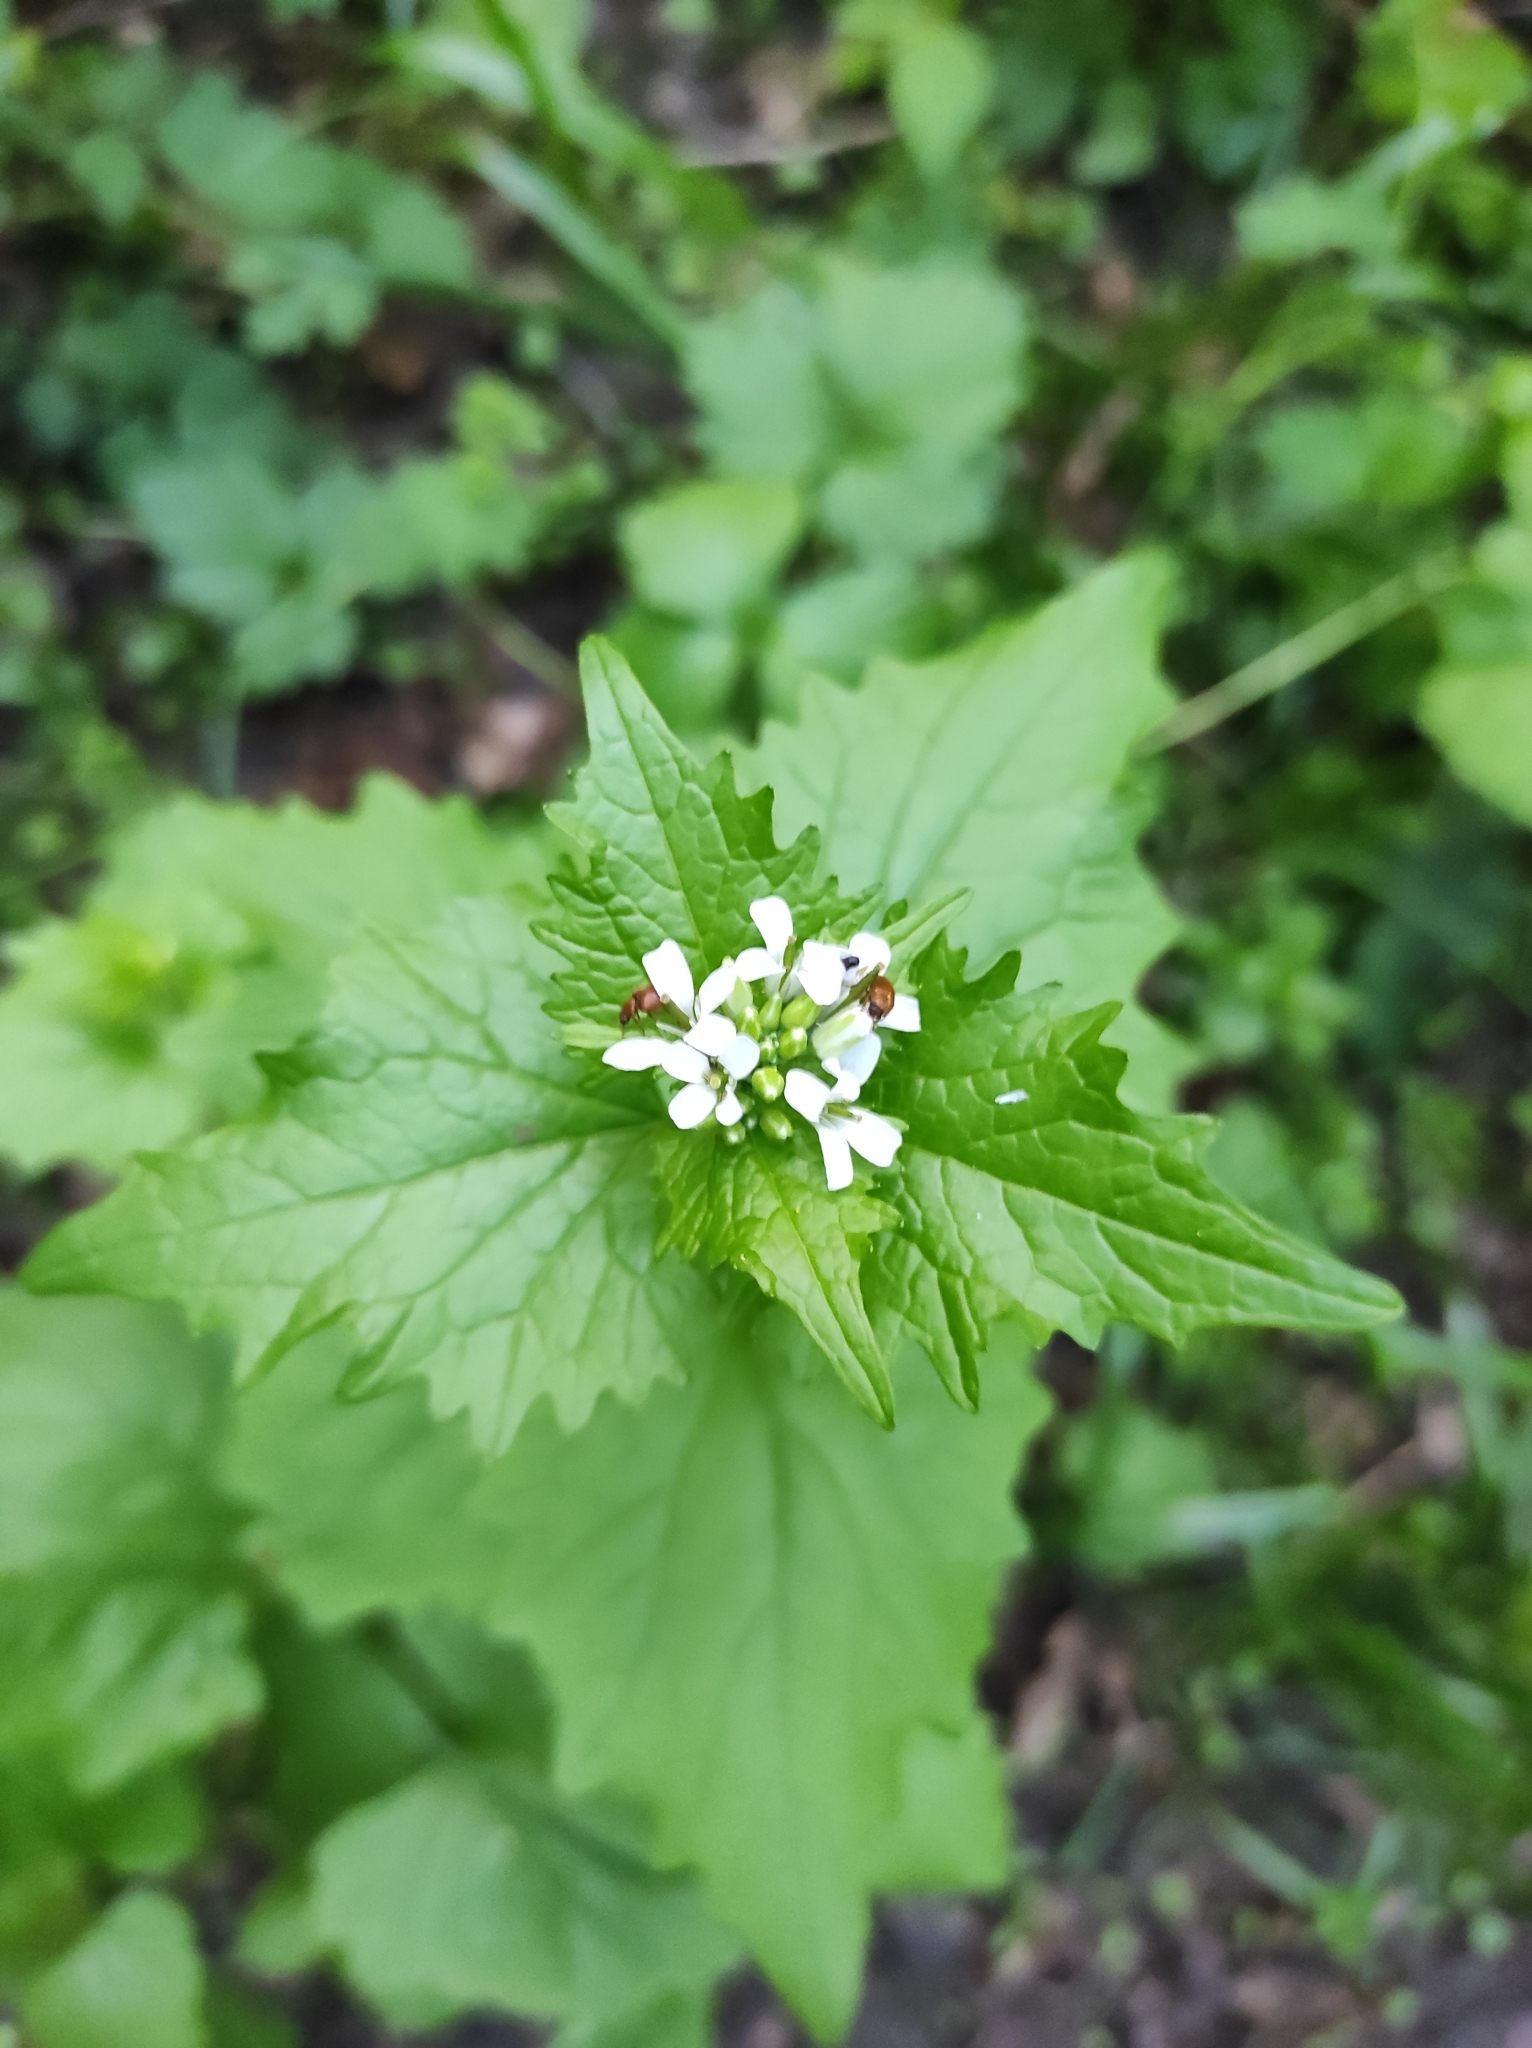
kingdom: Plantae
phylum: Tracheophyta
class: Magnoliopsida
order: Brassicales
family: Brassicaceae
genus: Alliaria
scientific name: Alliaria petiolata
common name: Garlic mustard
